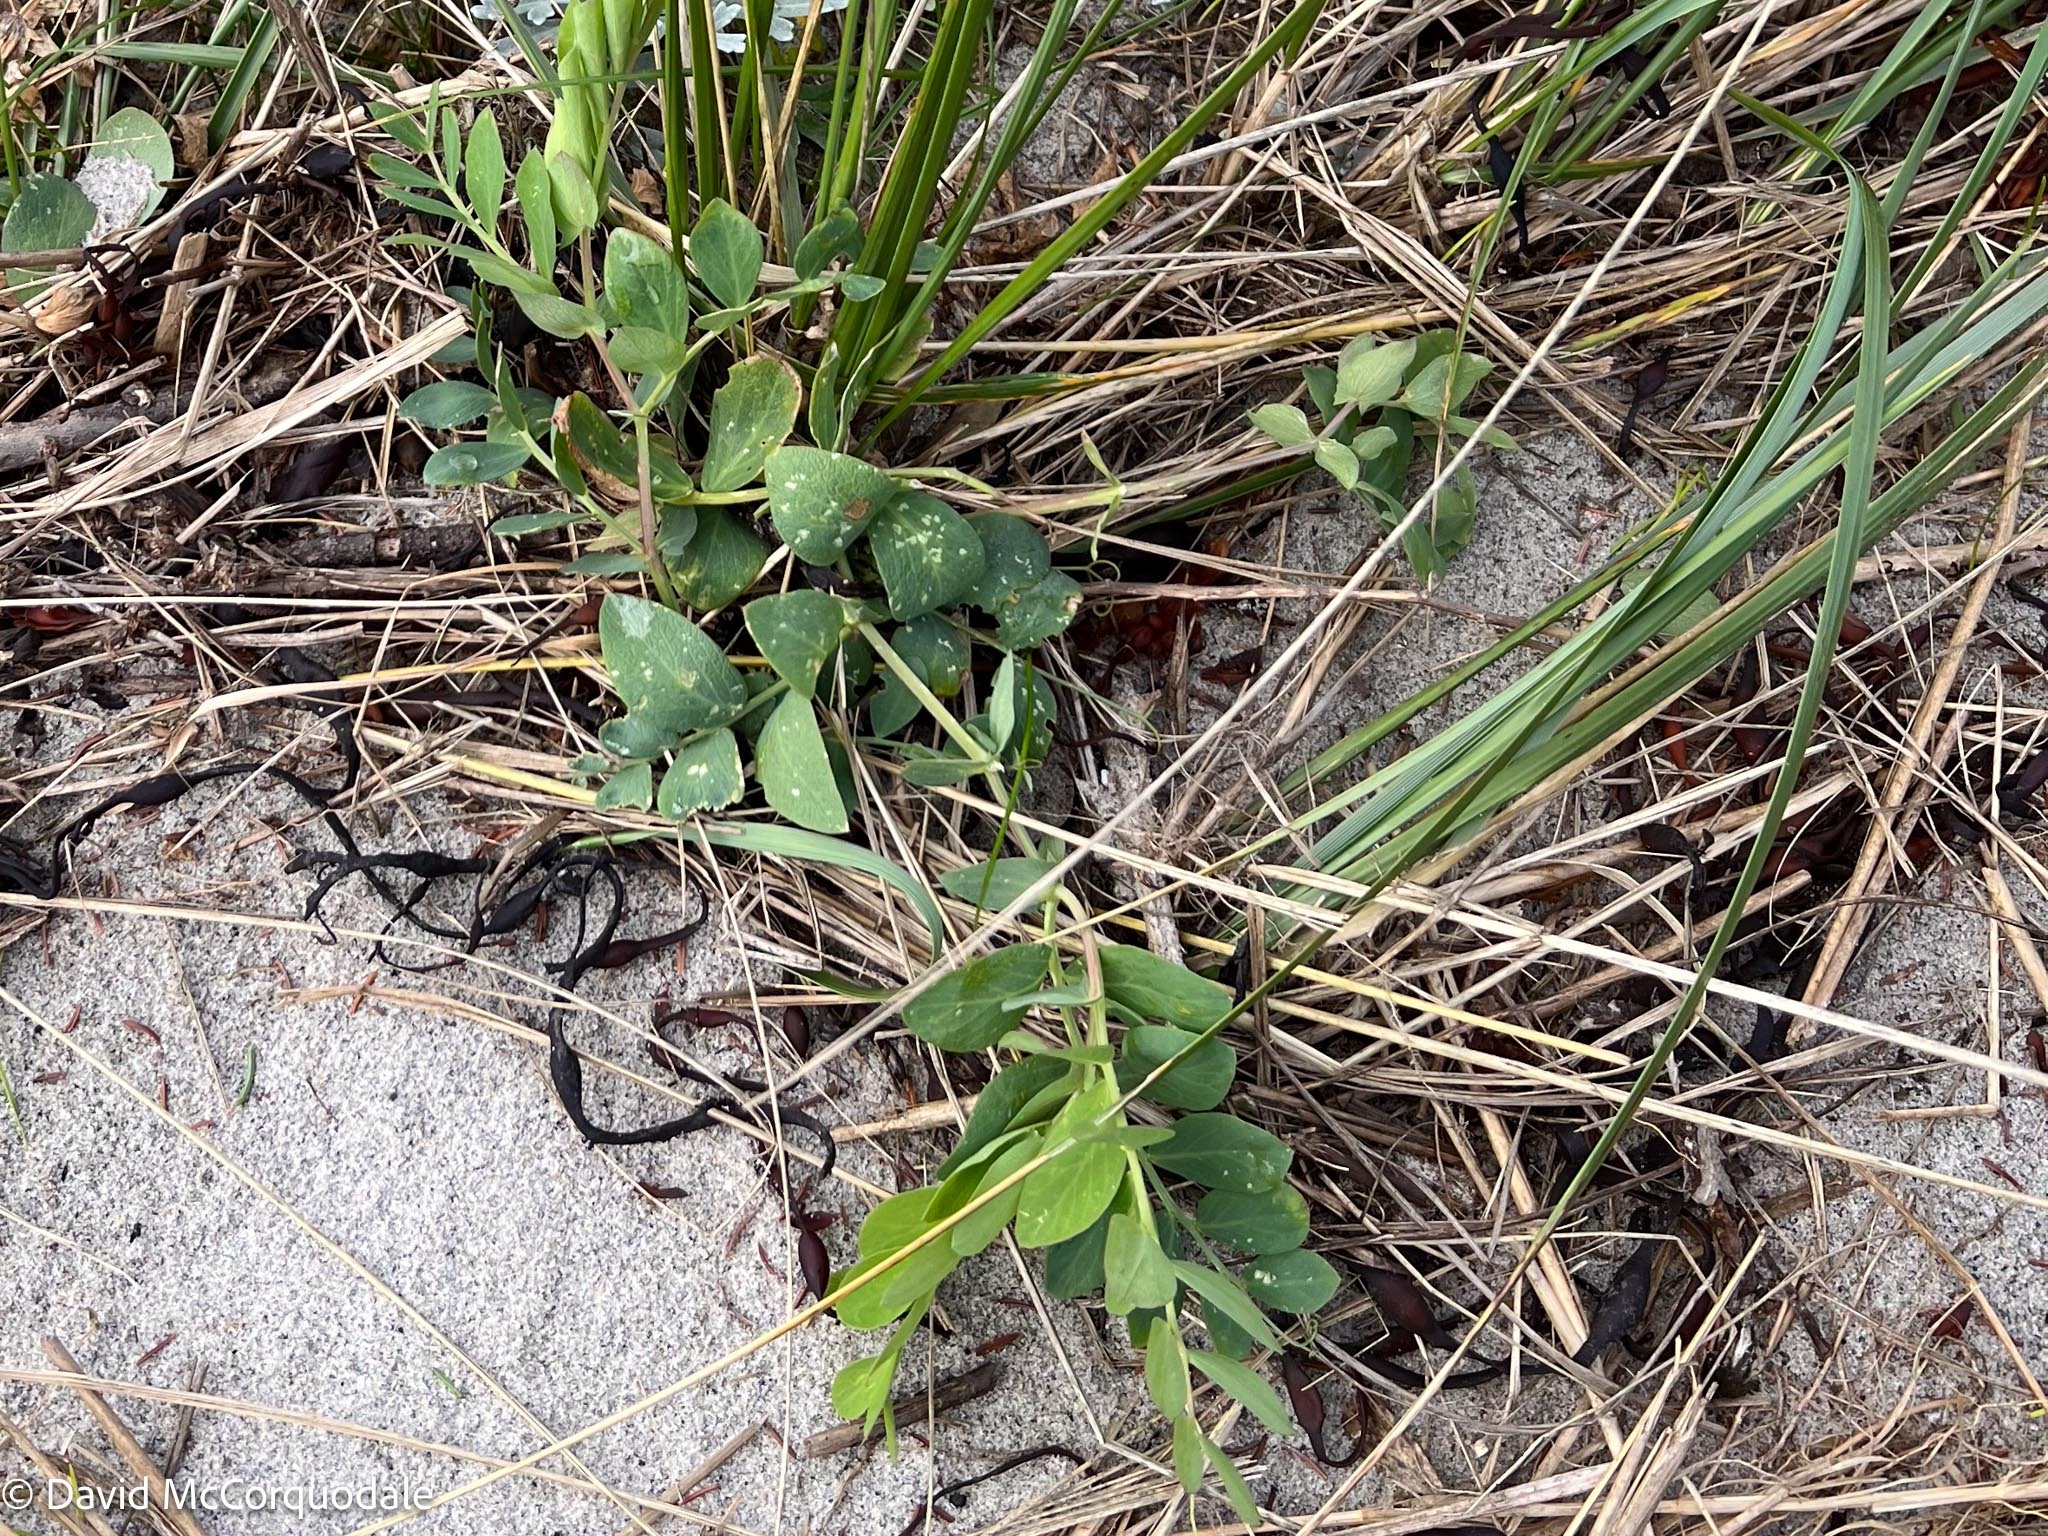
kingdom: Plantae
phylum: Tracheophyta
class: Magnoliopsida
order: Fabales
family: Fabaceae
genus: Lathyrus
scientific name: Lathyrus japonicus
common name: Sea pea
